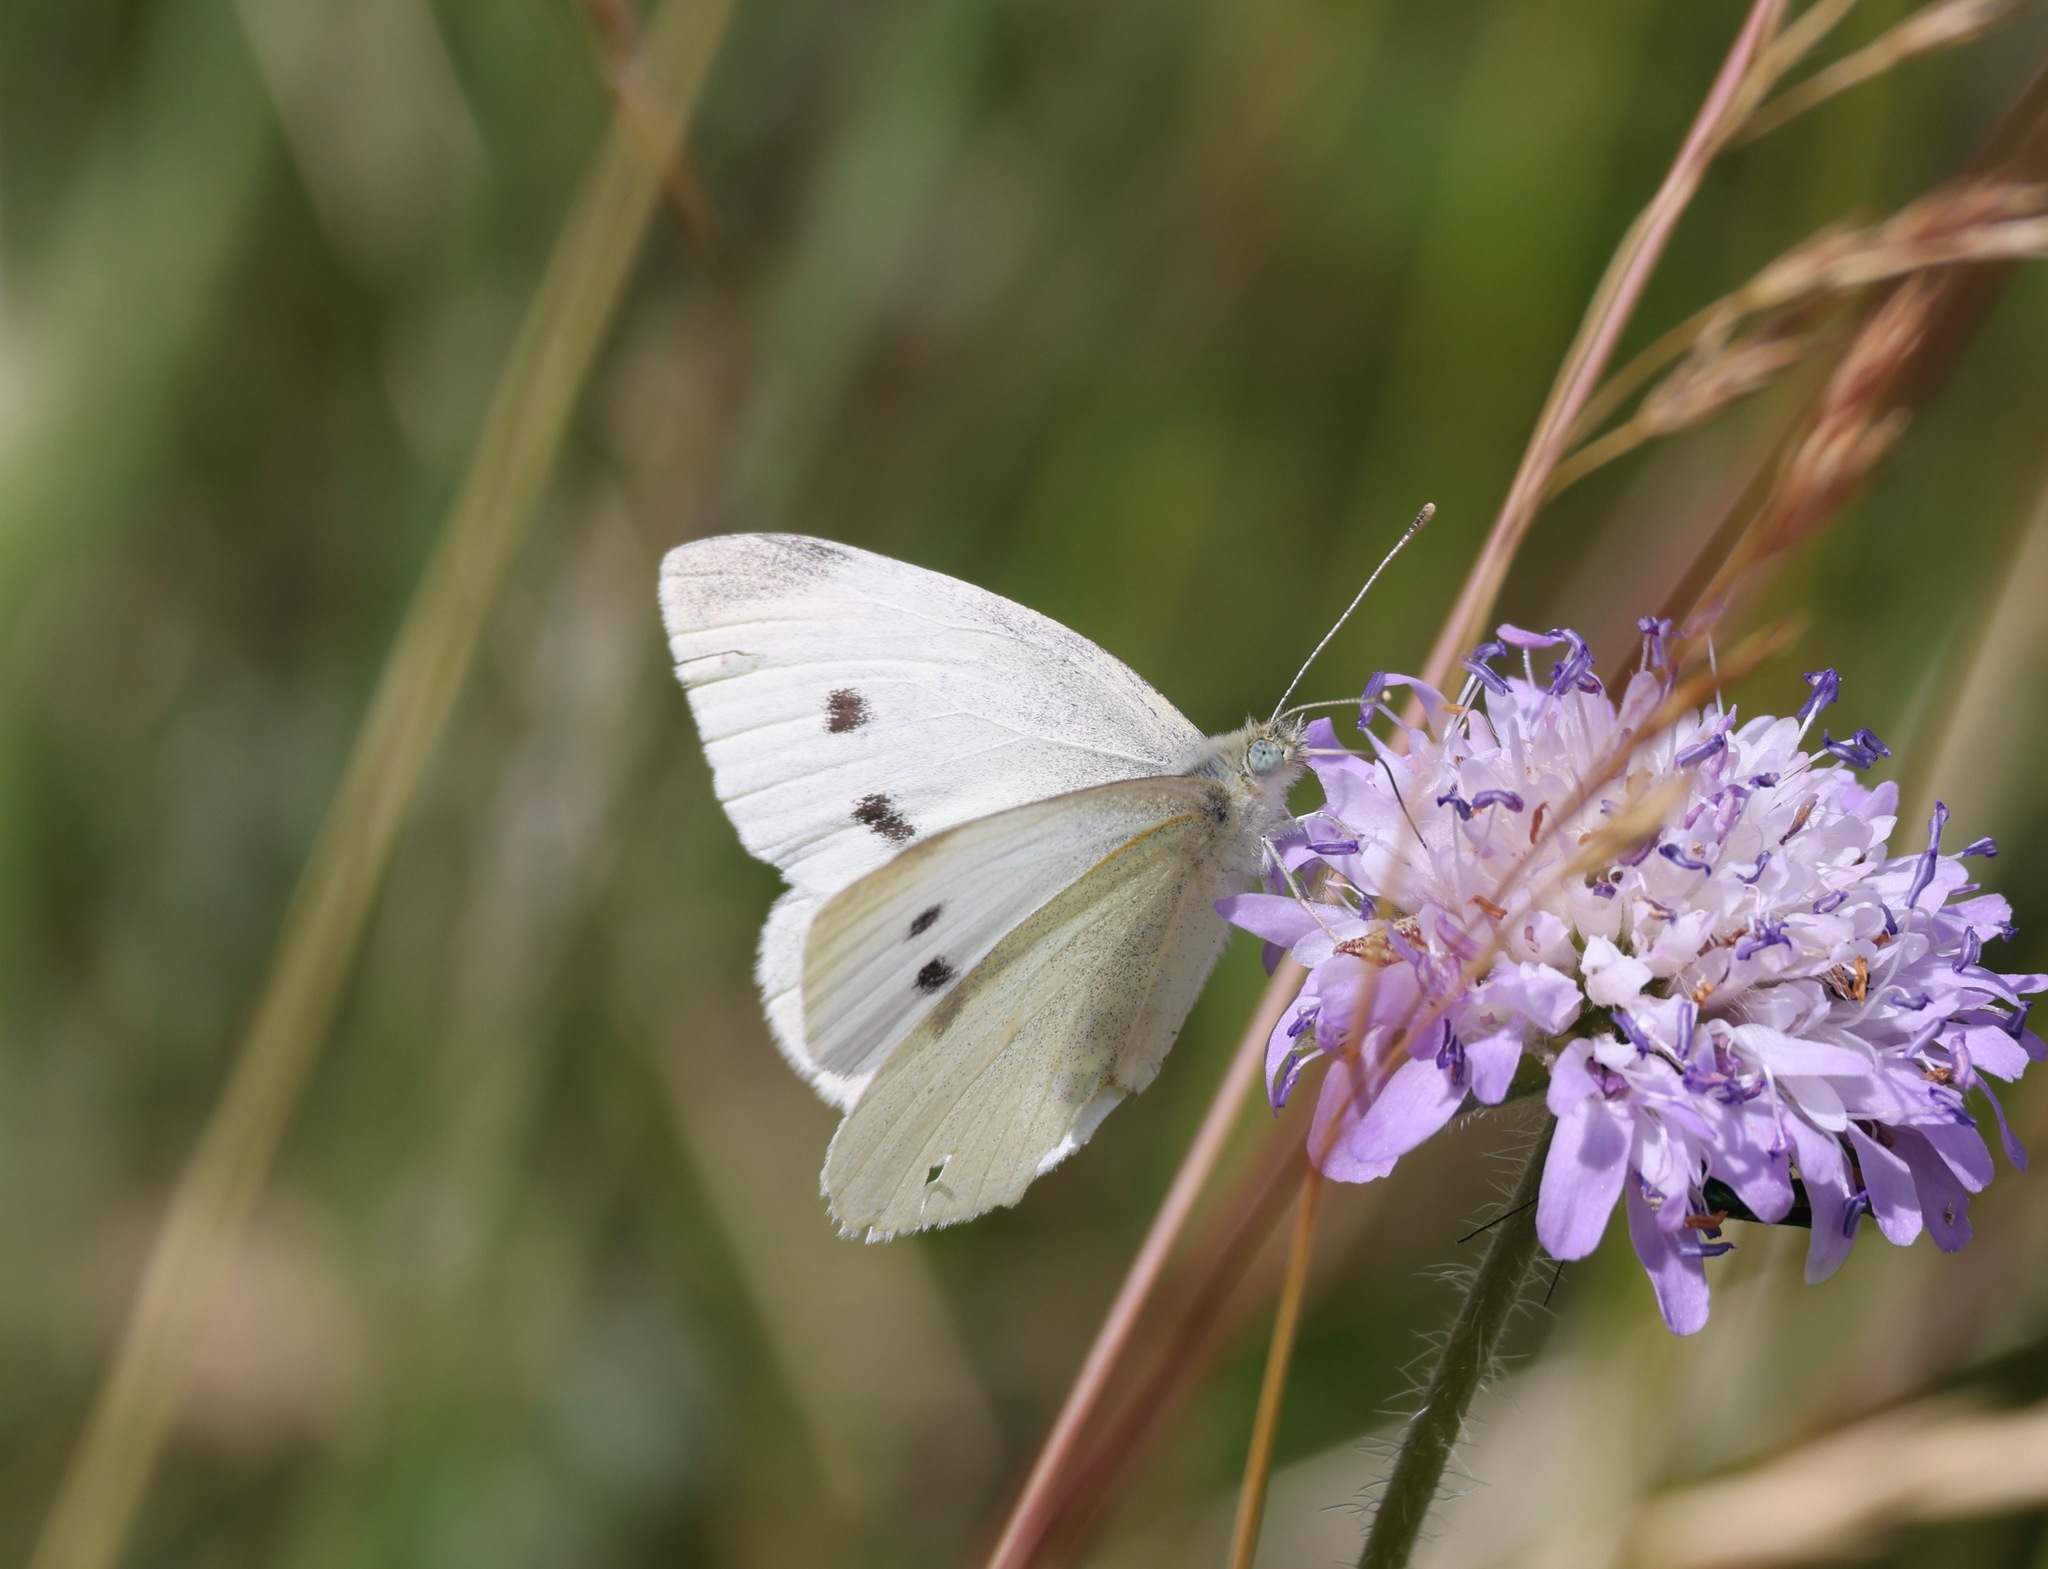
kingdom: Animalia
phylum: Arthropoda
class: Insecta
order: Lepidoptera
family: Pieridae
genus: Pieris
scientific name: Pieris rapae
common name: Small white
